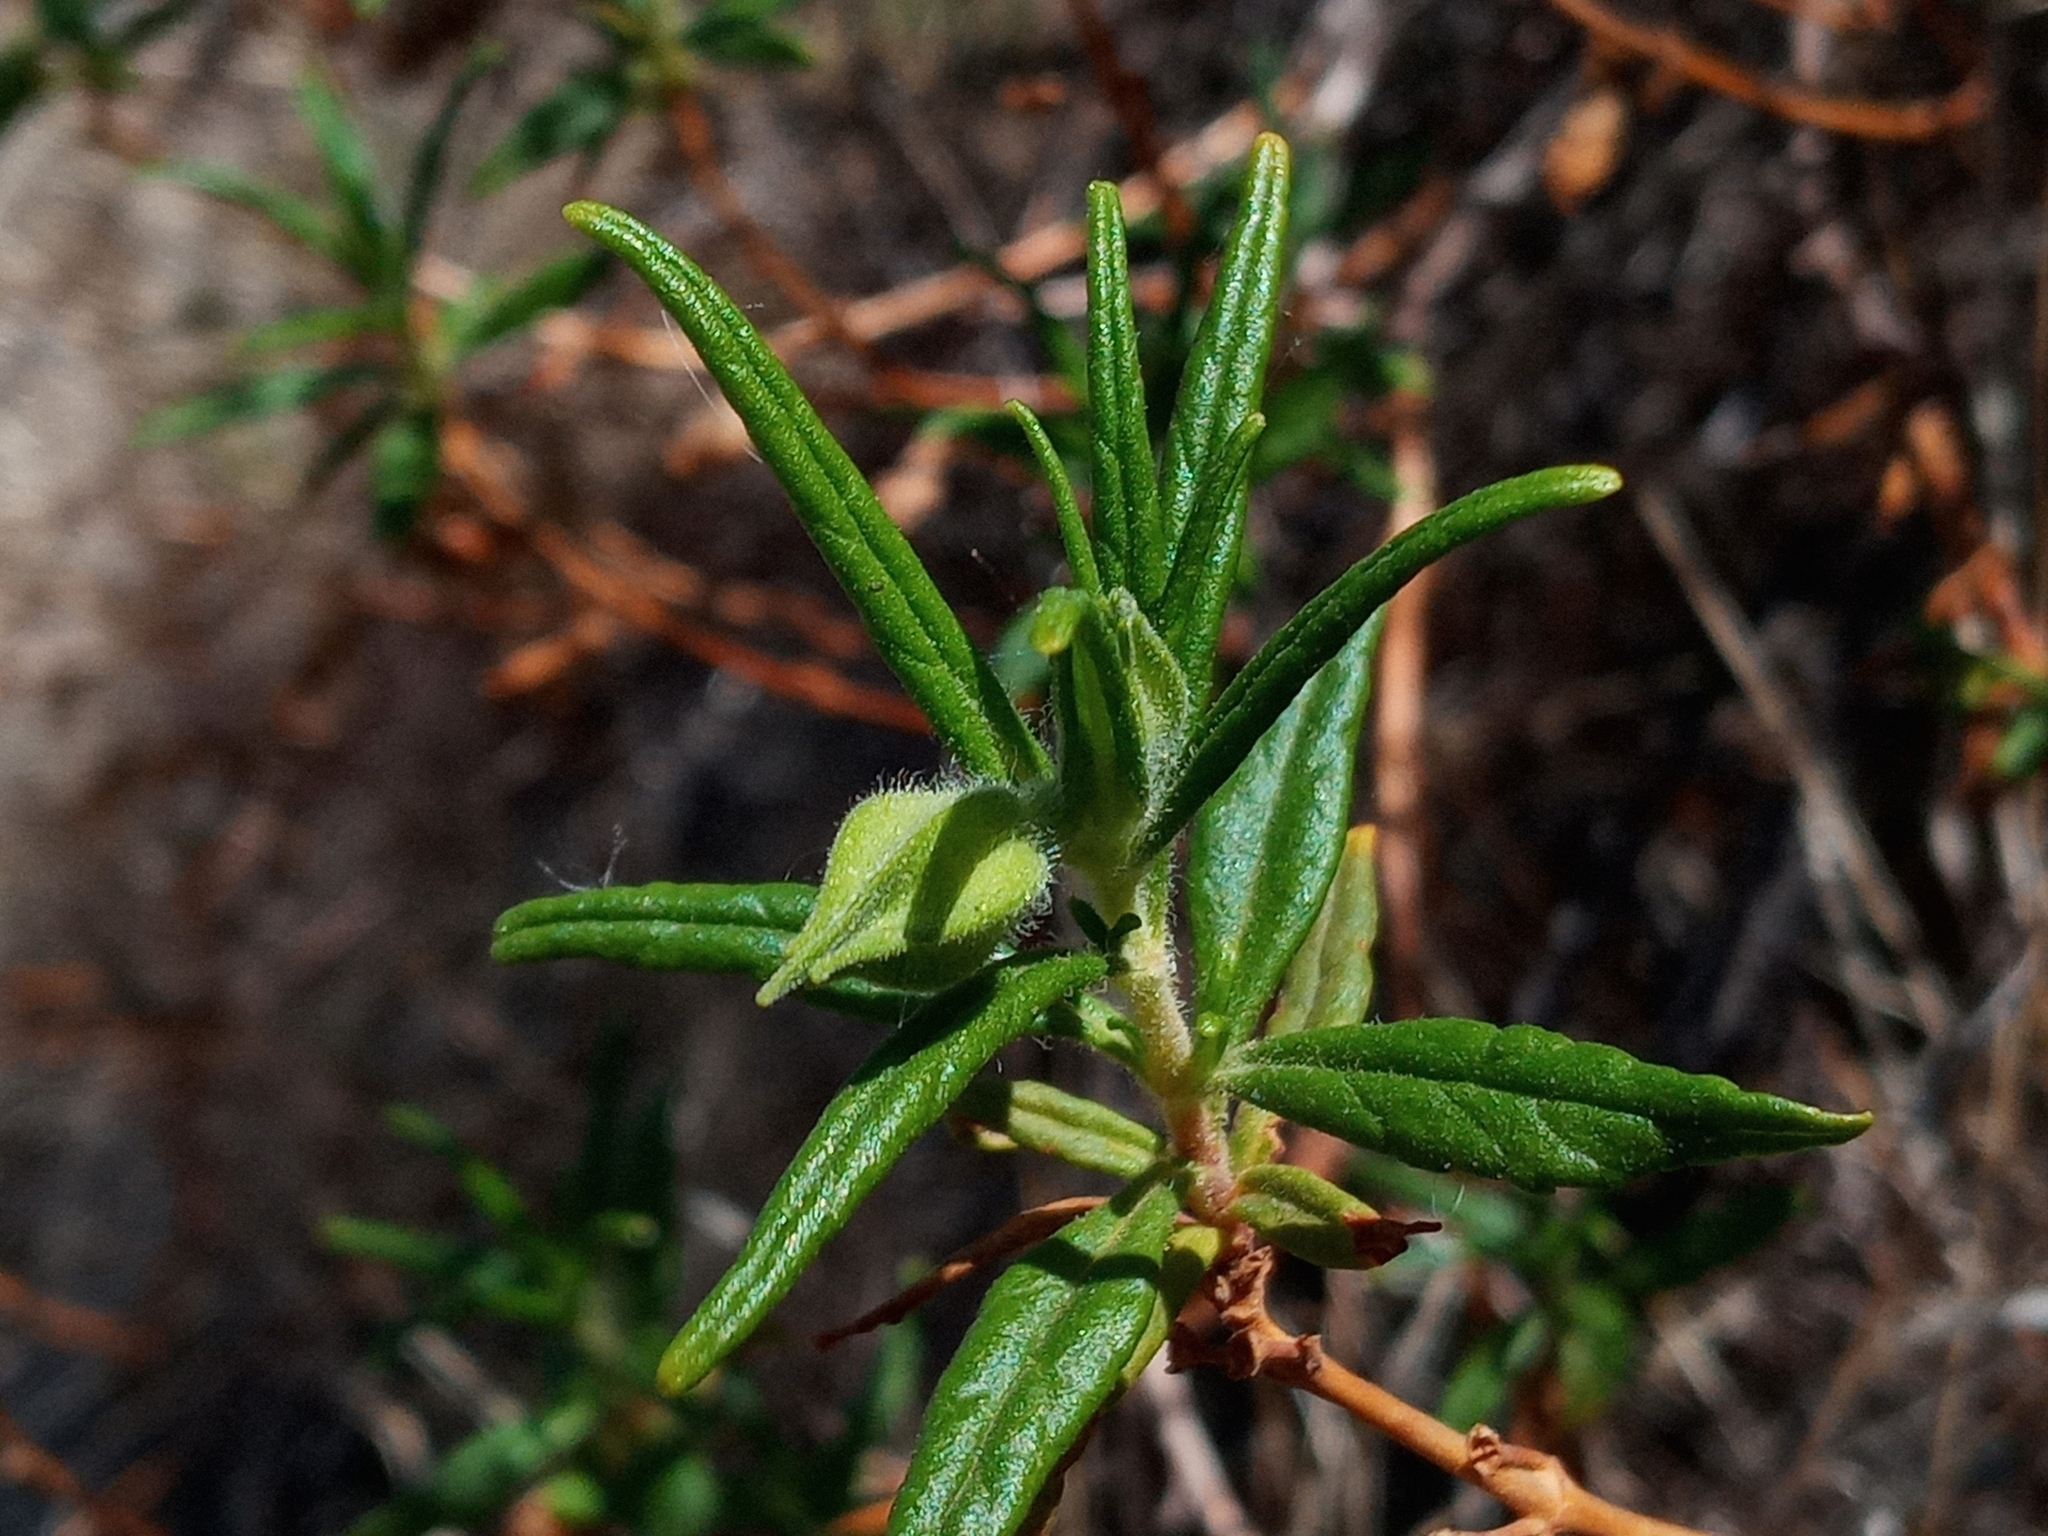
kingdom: Plantae
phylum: Tracheophyta
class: Magnoliopsida
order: Lamiales
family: Phrymaceae
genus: Diplacus
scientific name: Diplacus longiflorus
